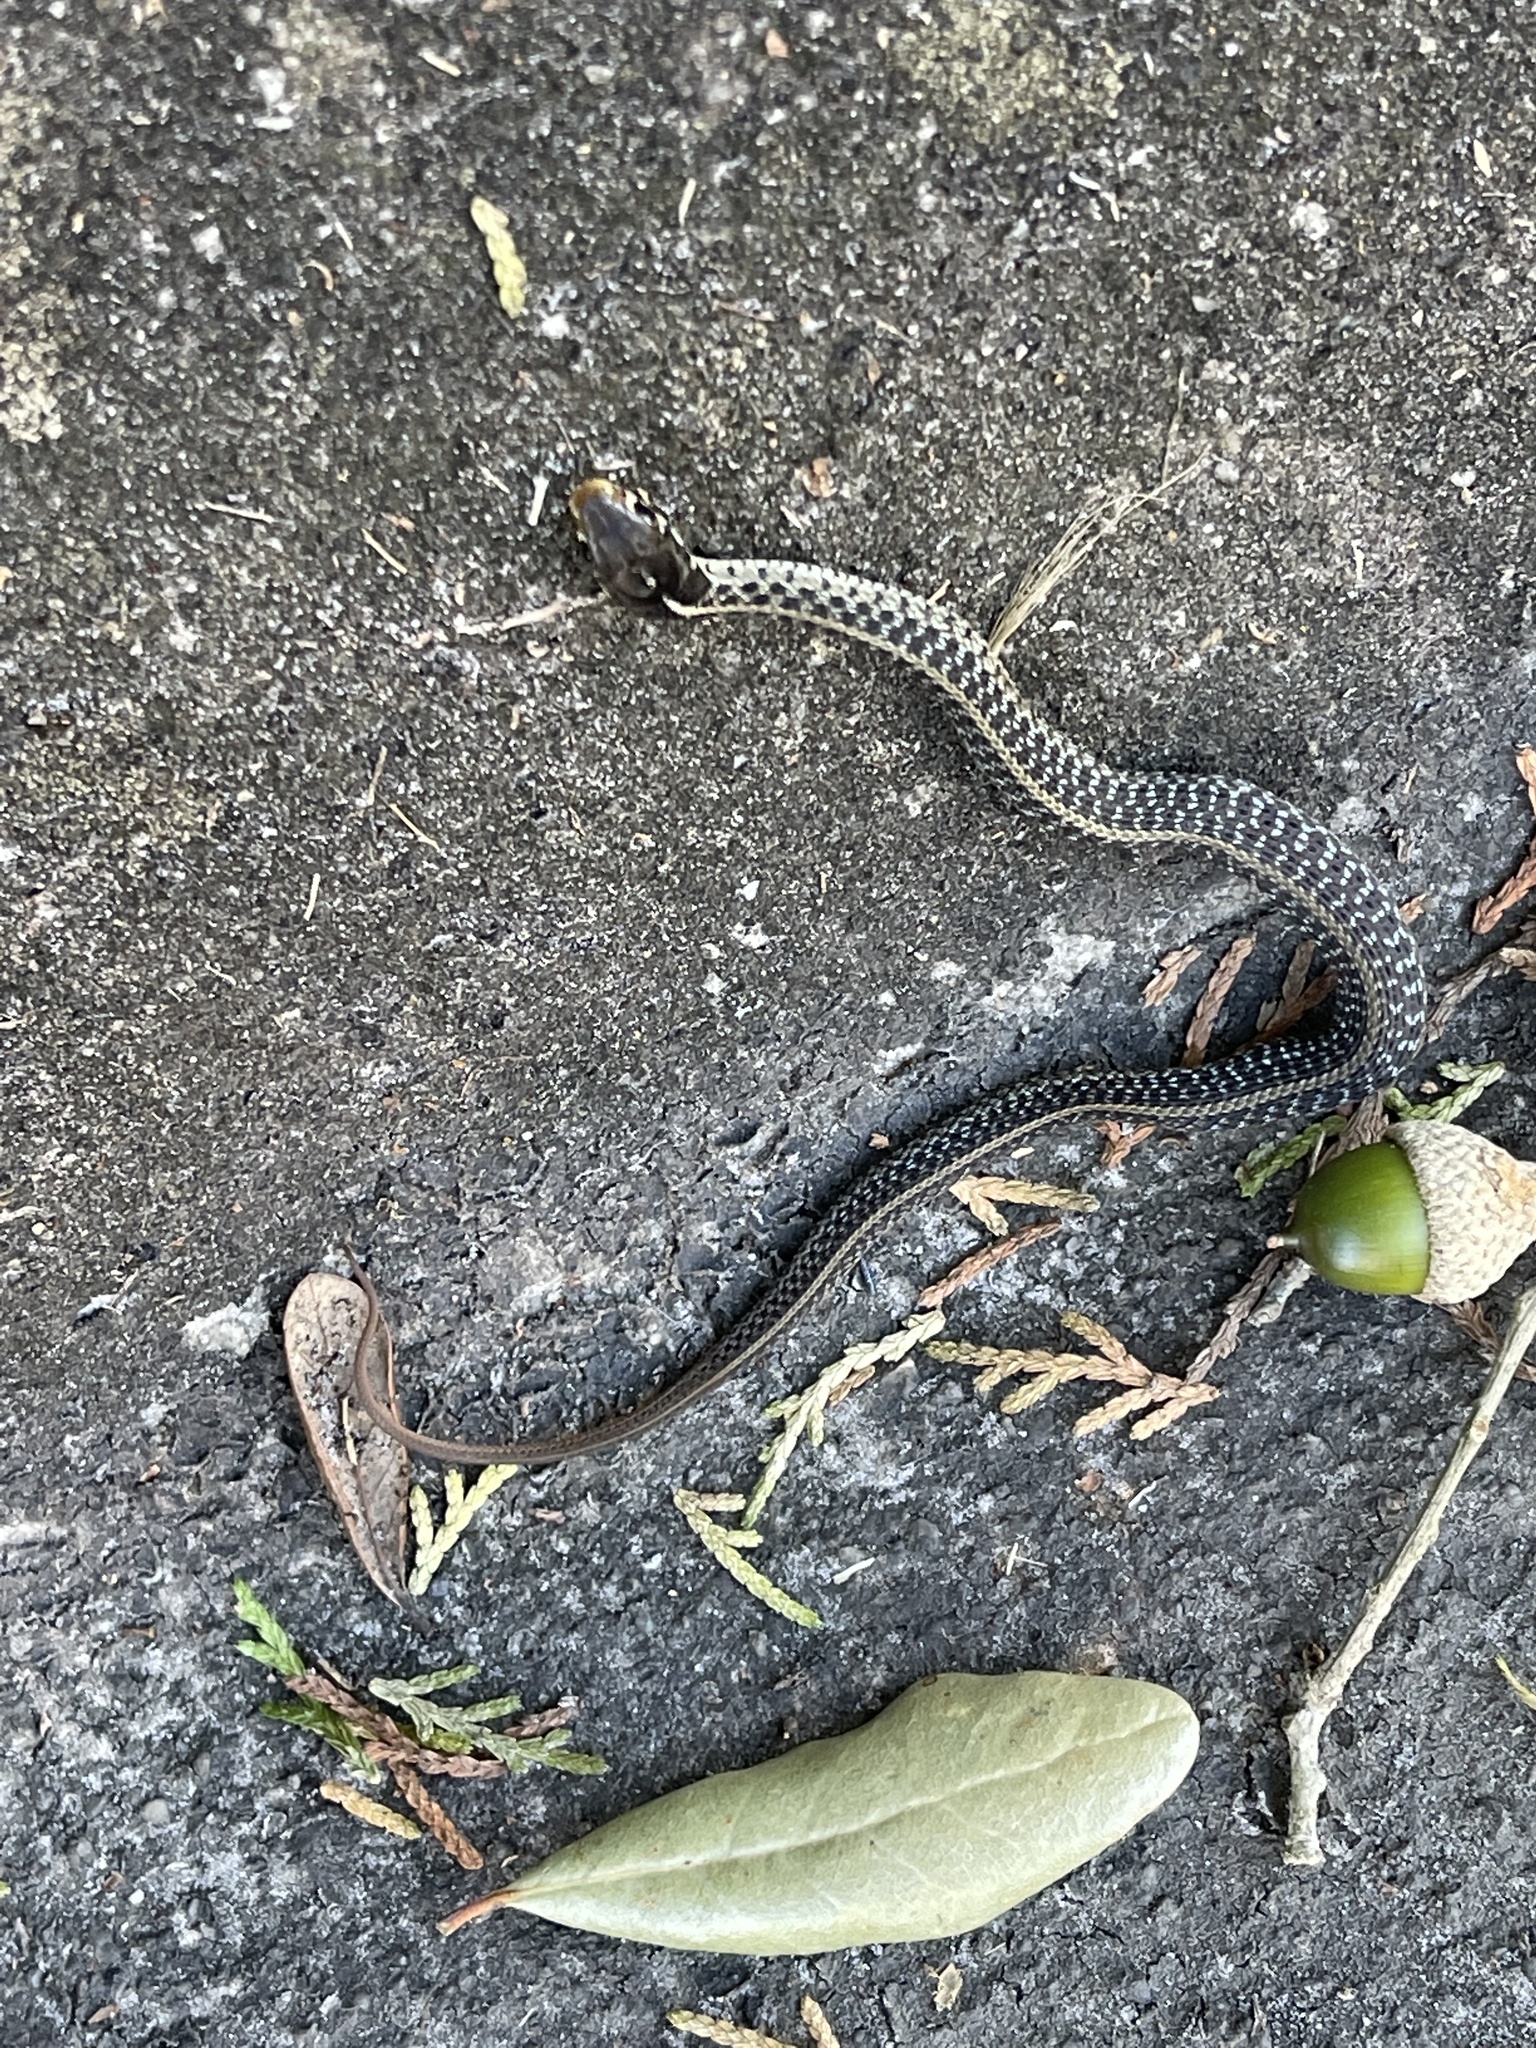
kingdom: Animalia
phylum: Chordata
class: Squamata
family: Colubridae
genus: Thamnophis
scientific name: Thamnophis sirtalis
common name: Common garter snake
